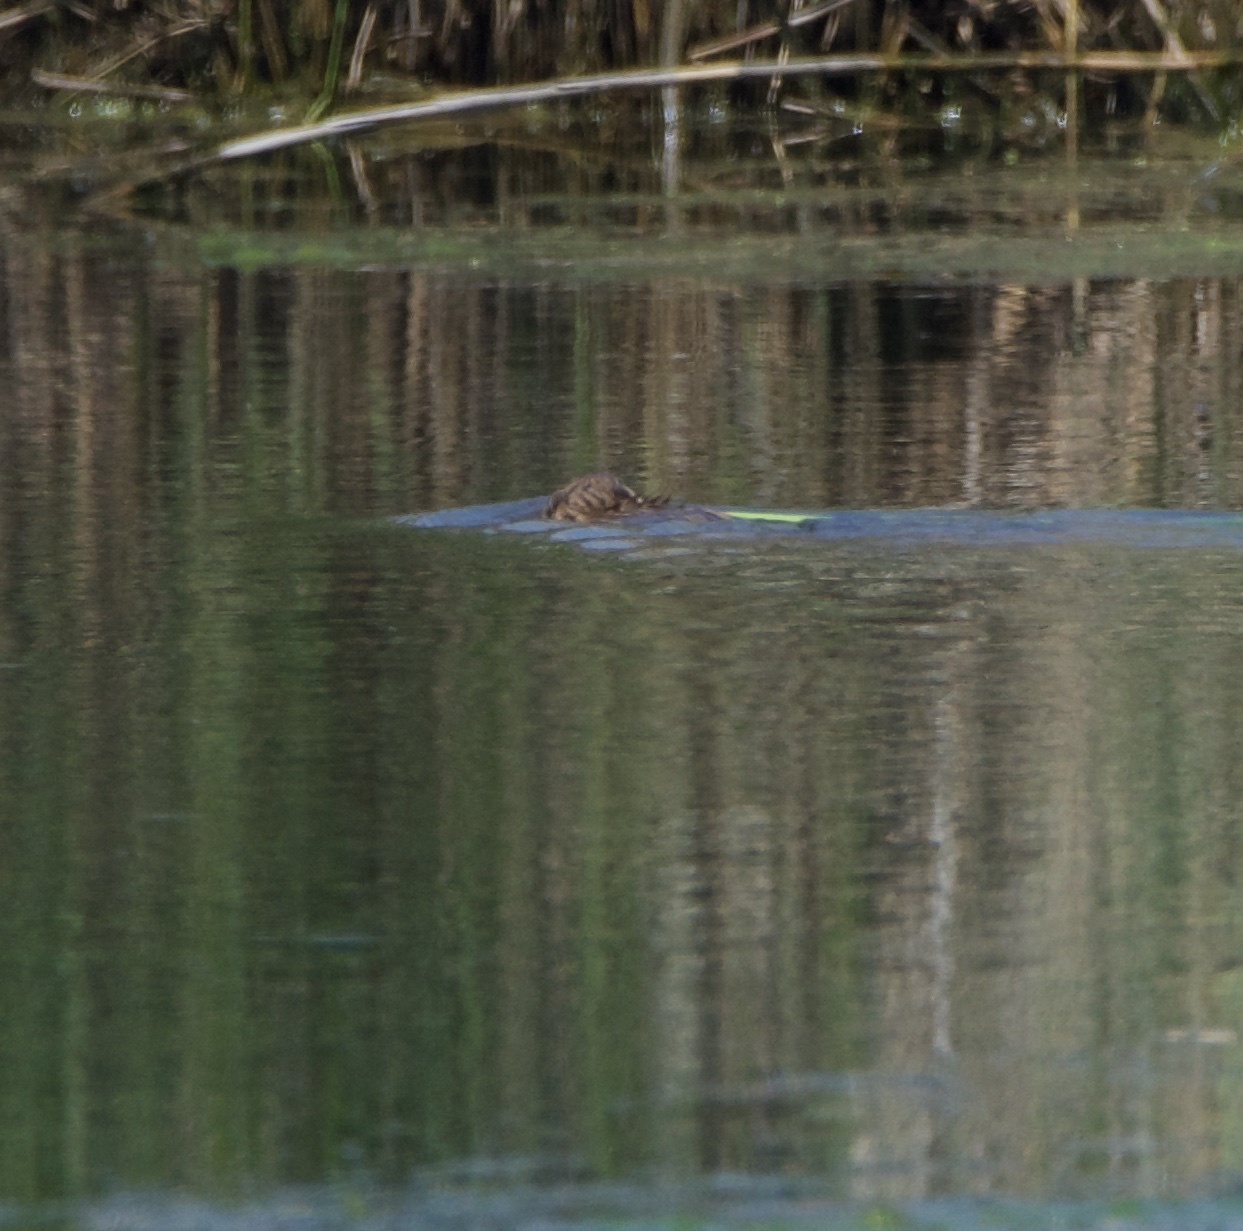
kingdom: Animalia
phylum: Chordata
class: Mammalia
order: Rodentia
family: Cricetidae
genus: Ondatra
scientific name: Ondatra zibethicus
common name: Muskrat
